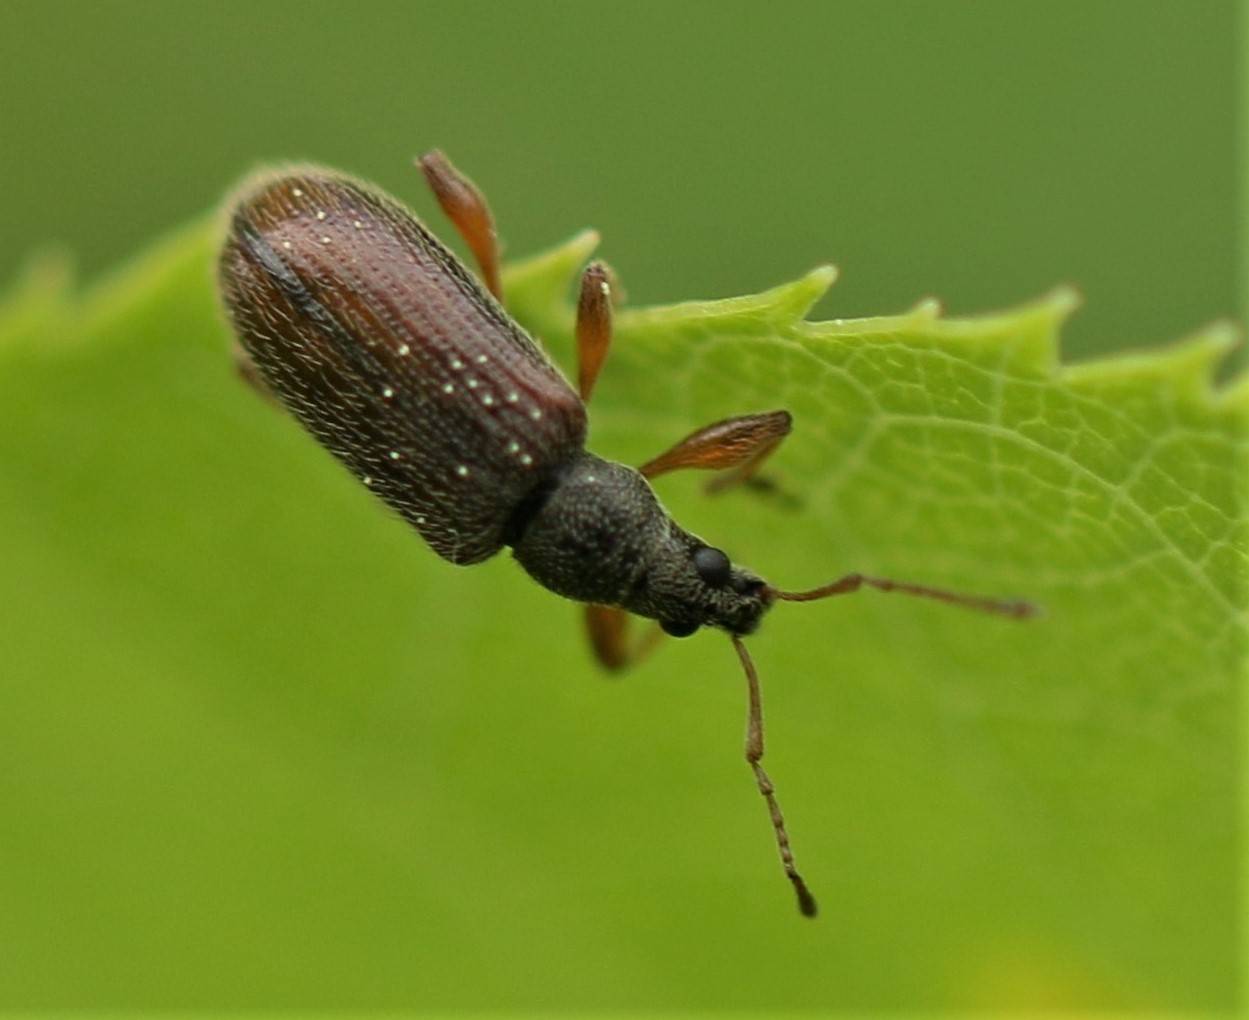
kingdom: Animalia
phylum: Arthropoda
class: Insecta
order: Coleoptera
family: Curculionidae
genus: Phyllobius
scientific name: Phyllobius oblongus
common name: Brown leaf weevil
